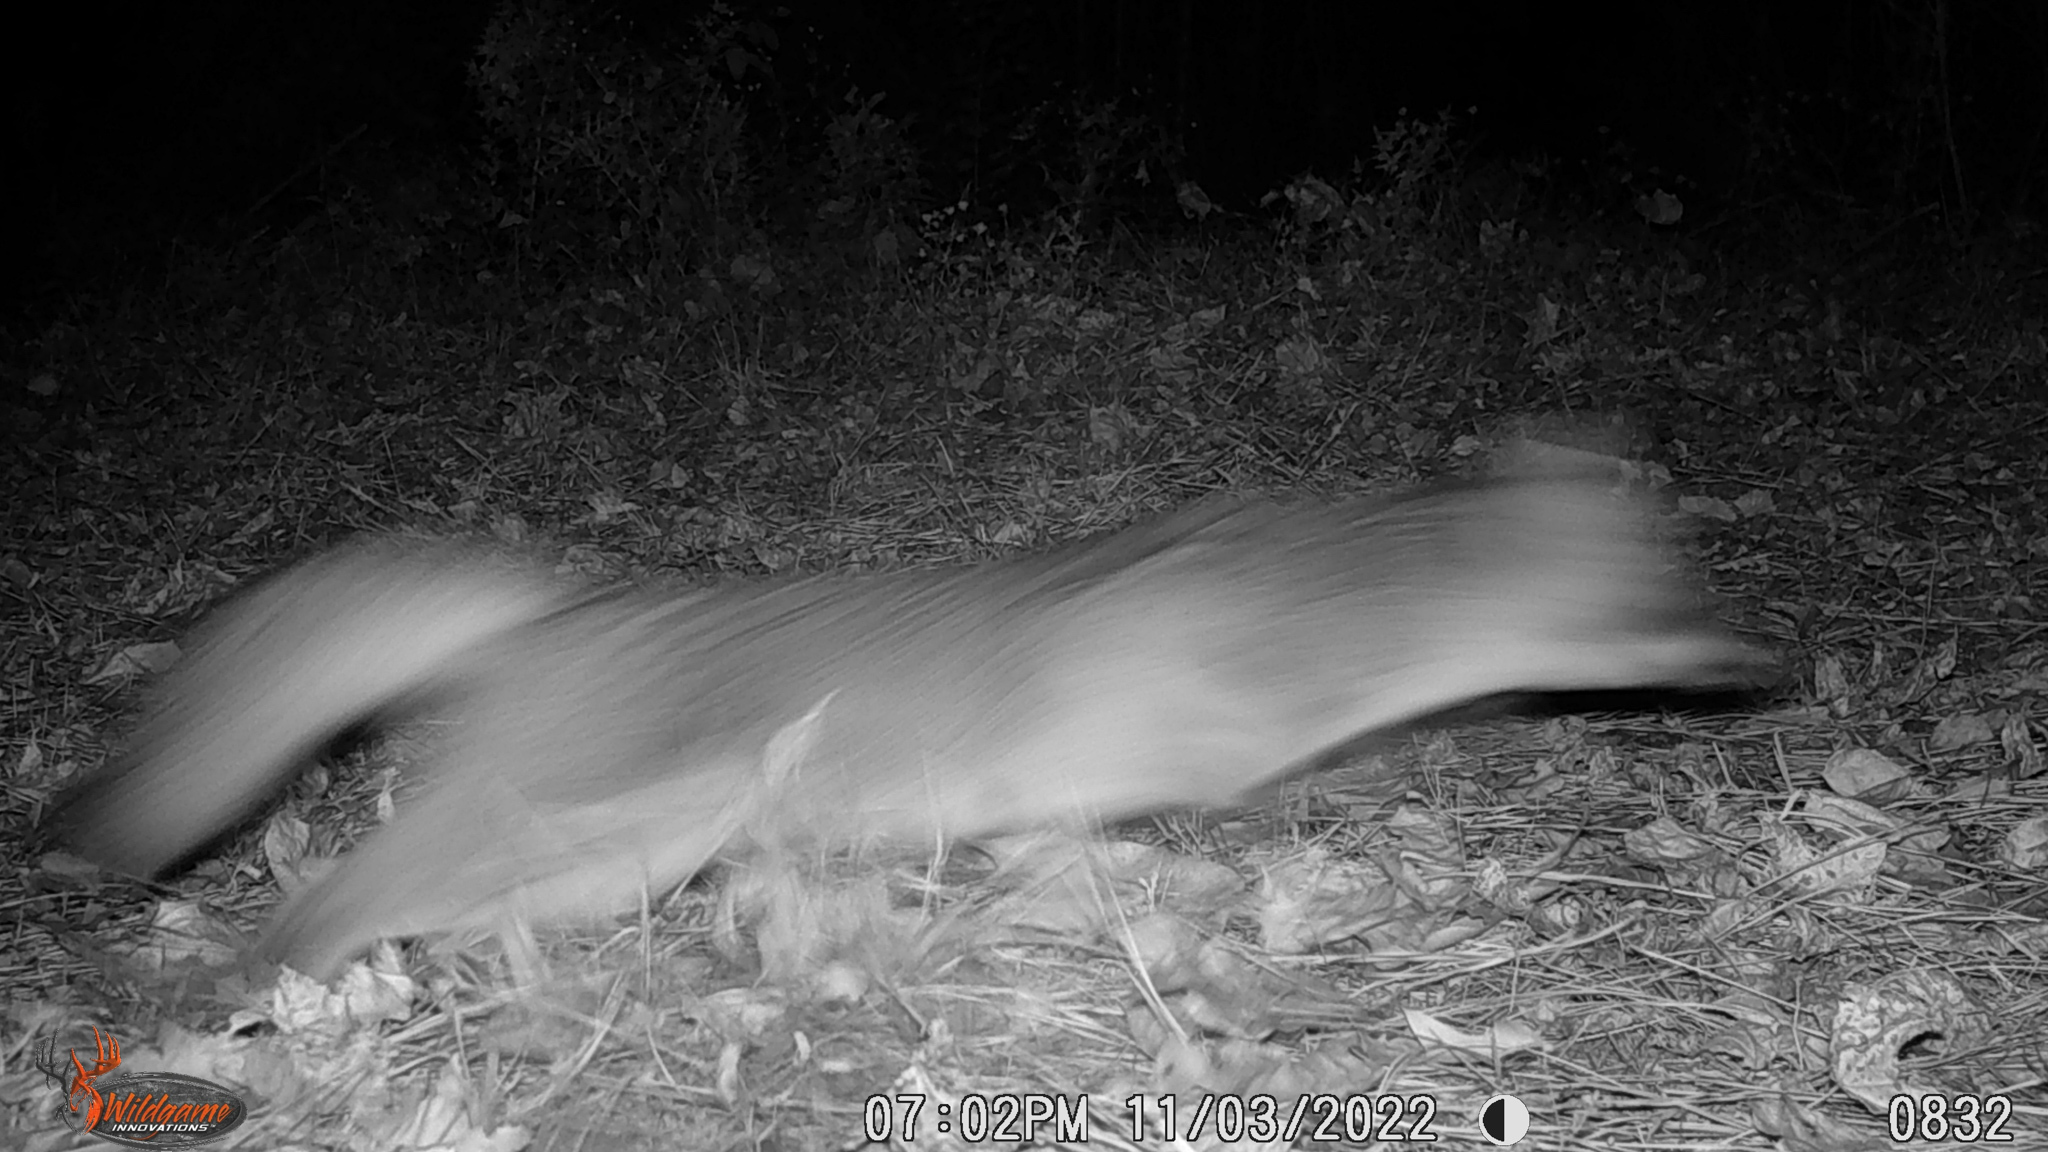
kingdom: Animalia
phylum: Chordata
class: Mammalia
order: Carnivora
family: Canidae
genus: Urocyon
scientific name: Urocyon cinereoargenteus
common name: Gray fox
